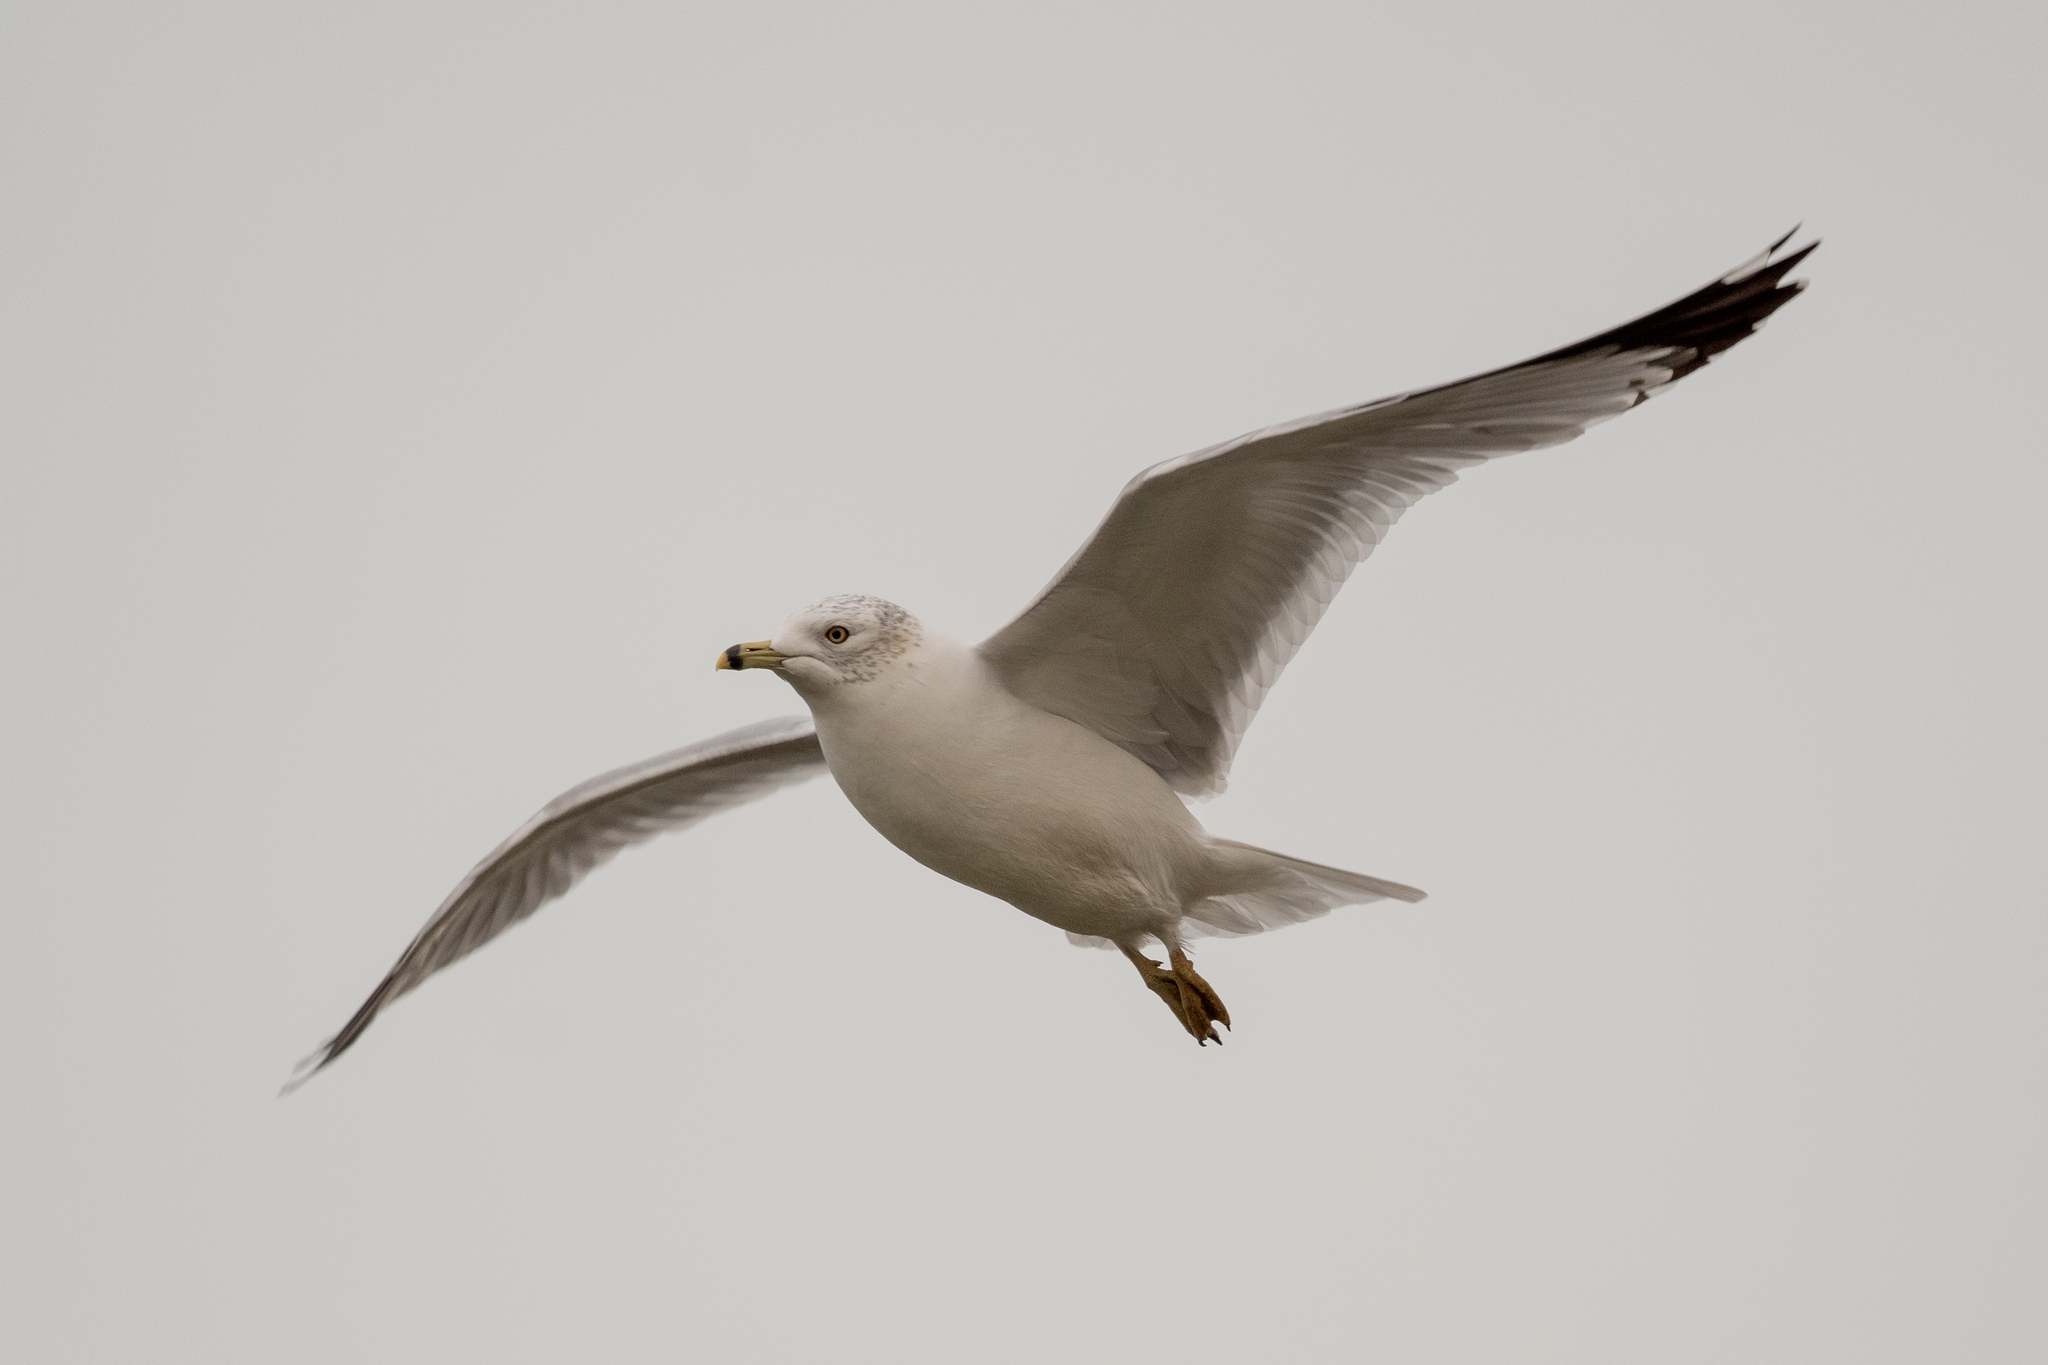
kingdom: Animalia
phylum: Chordata
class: Aves
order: Charadriiformes
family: Laridae
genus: Larus
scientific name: Larus delawarensis
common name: Ring-billed gull
